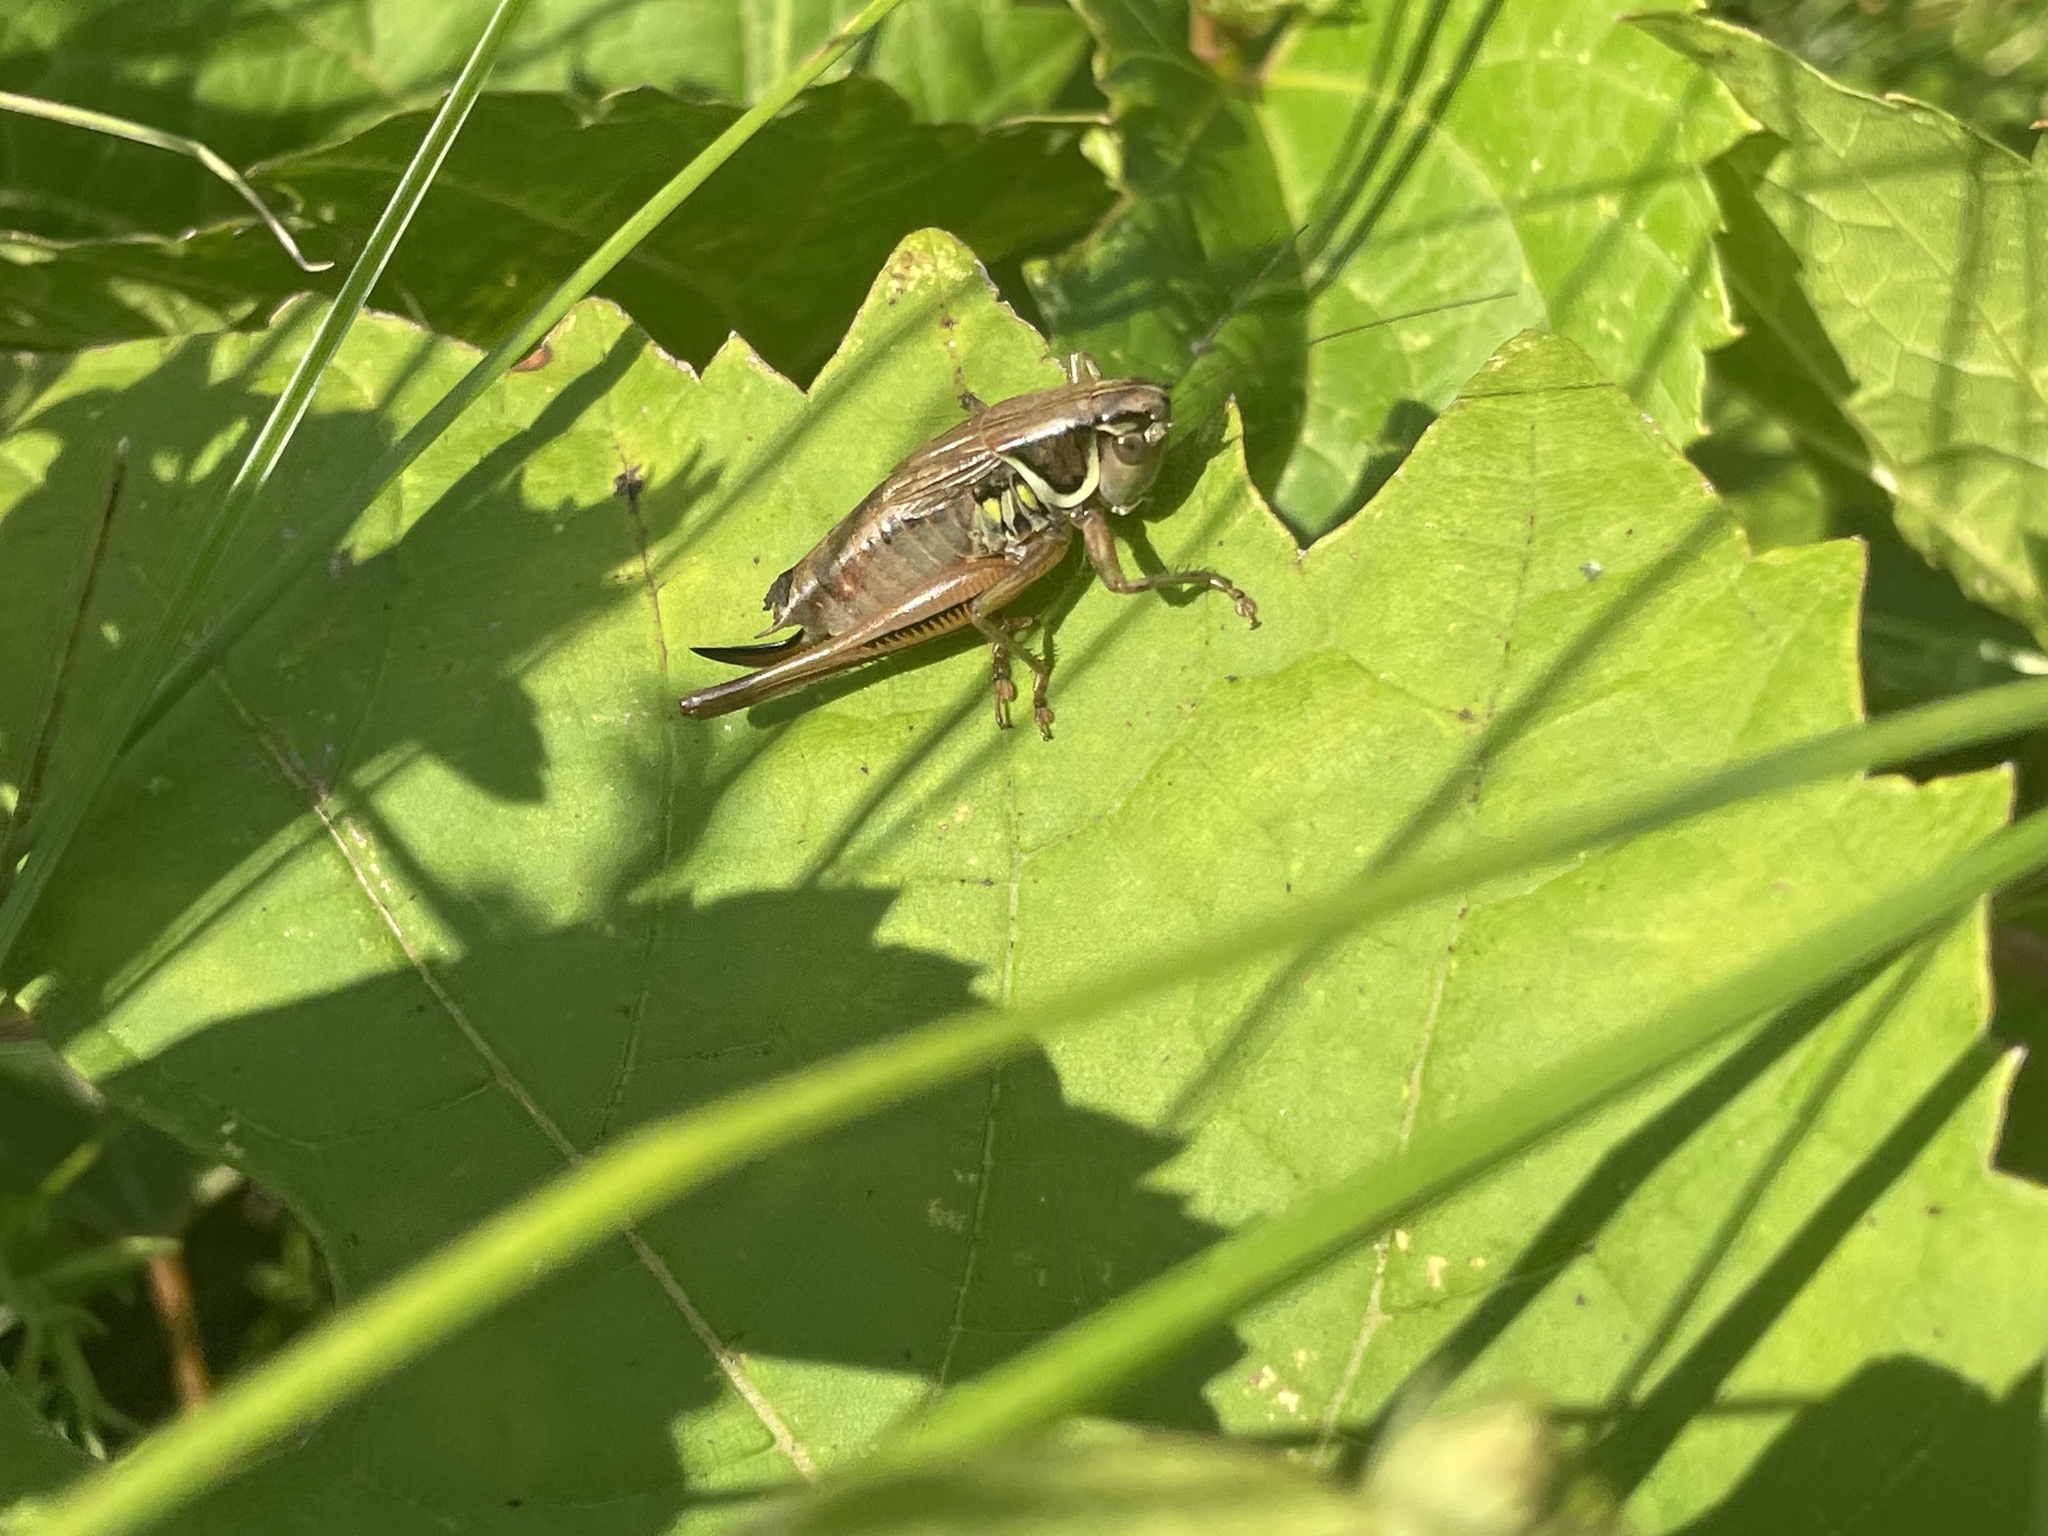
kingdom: Animalia
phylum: Arthropoda
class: Insecta
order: Orthoptera
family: Tettigoniidae
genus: Roeseliana
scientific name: Roeseliana roeselii
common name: Roesel's bush cricket
